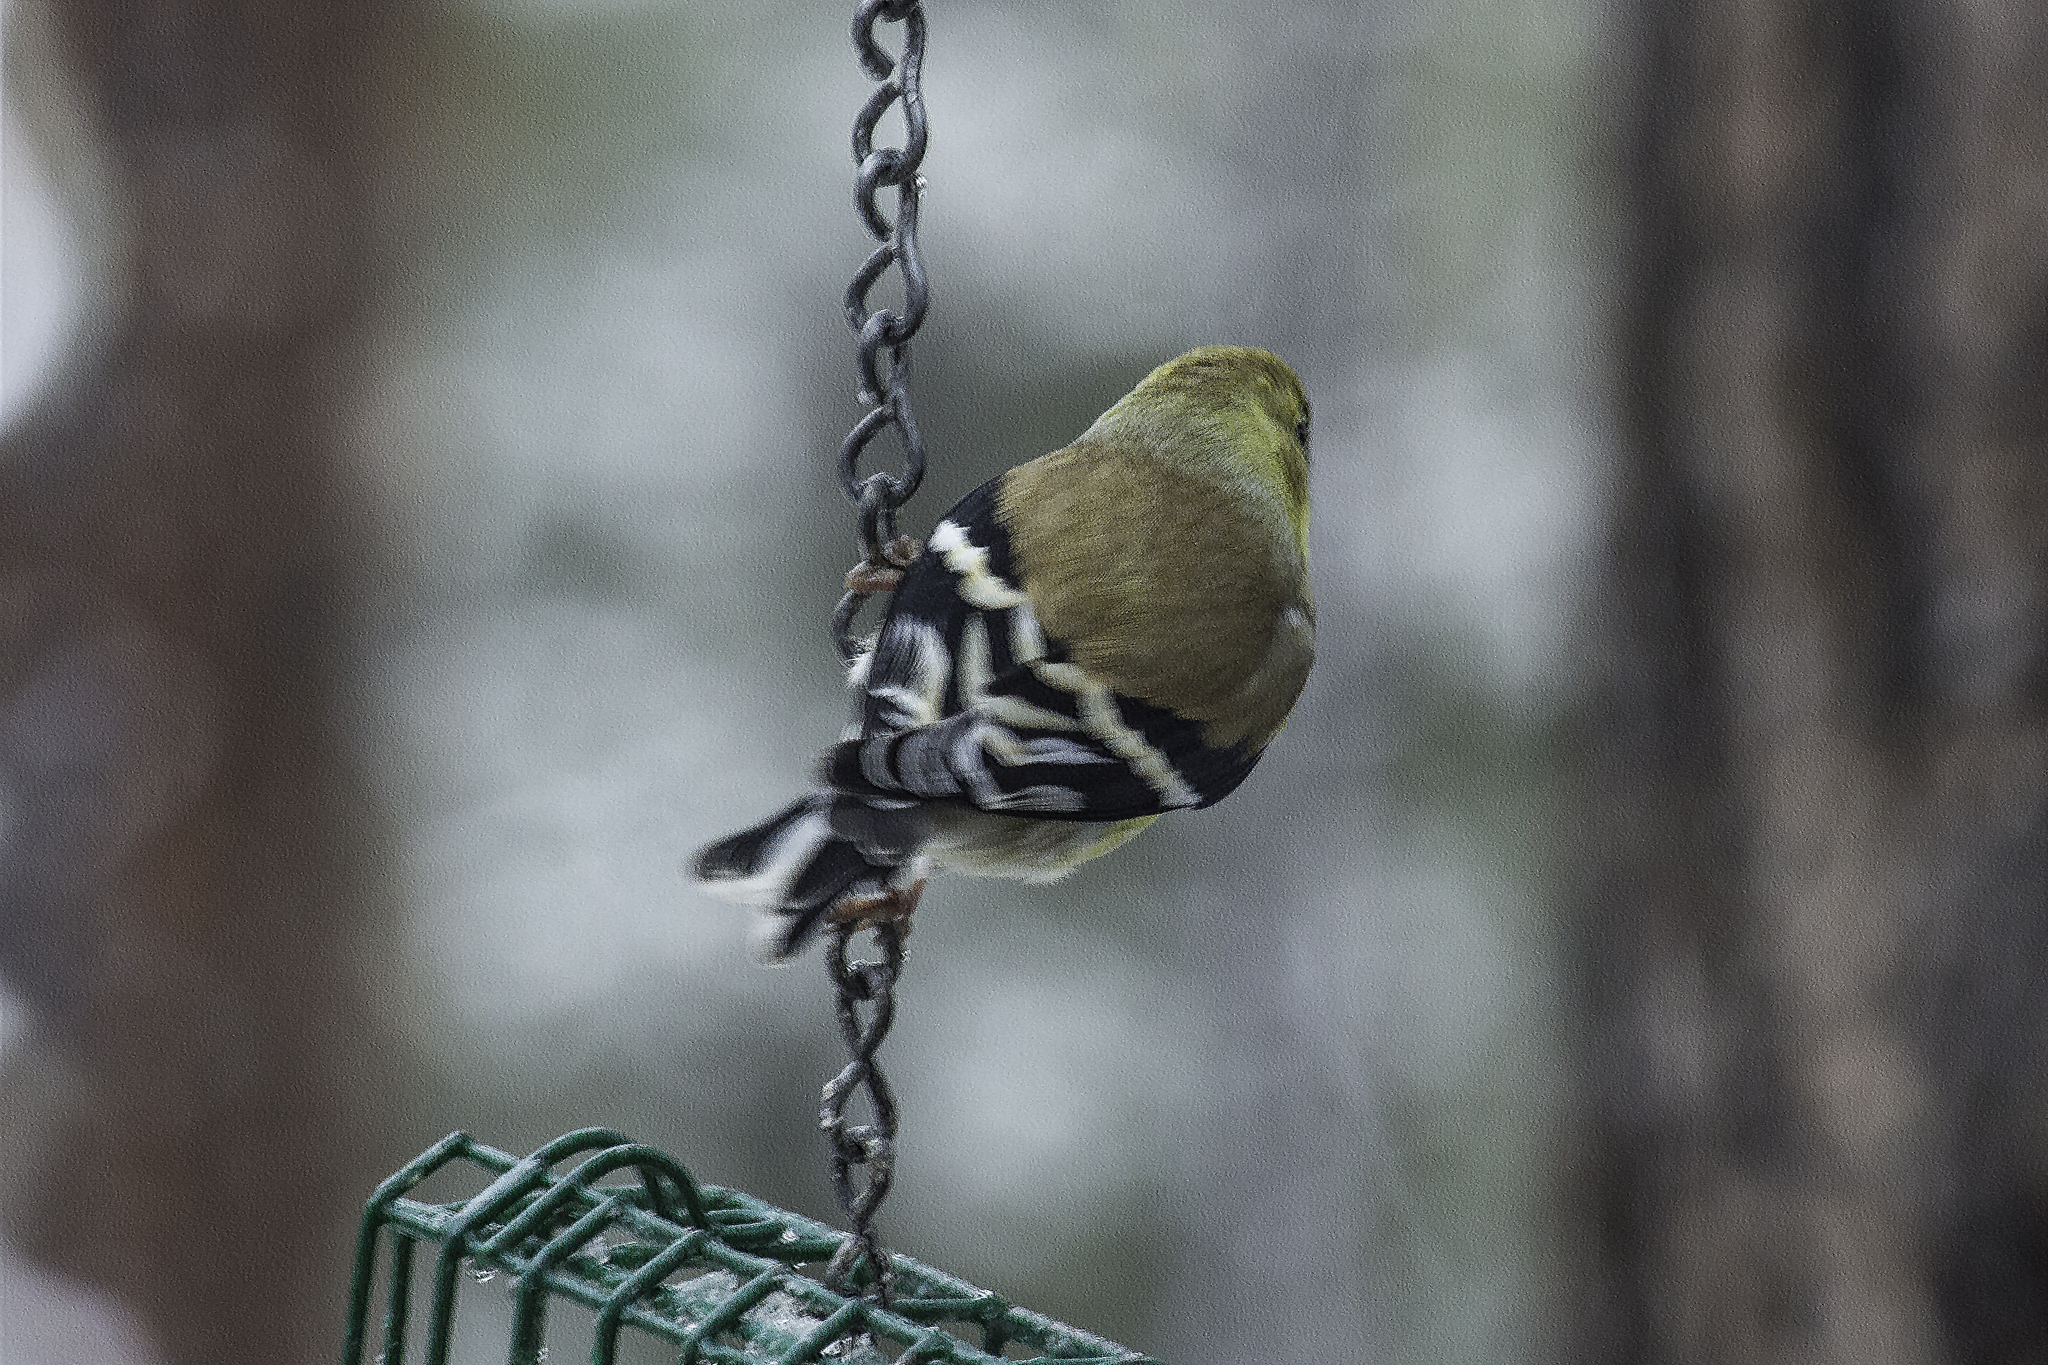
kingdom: Animalia
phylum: Chordata
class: Aves
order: Passeriformes
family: Fringillidae
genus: Spinus
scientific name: Spinus tristis
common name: American goldfinch
